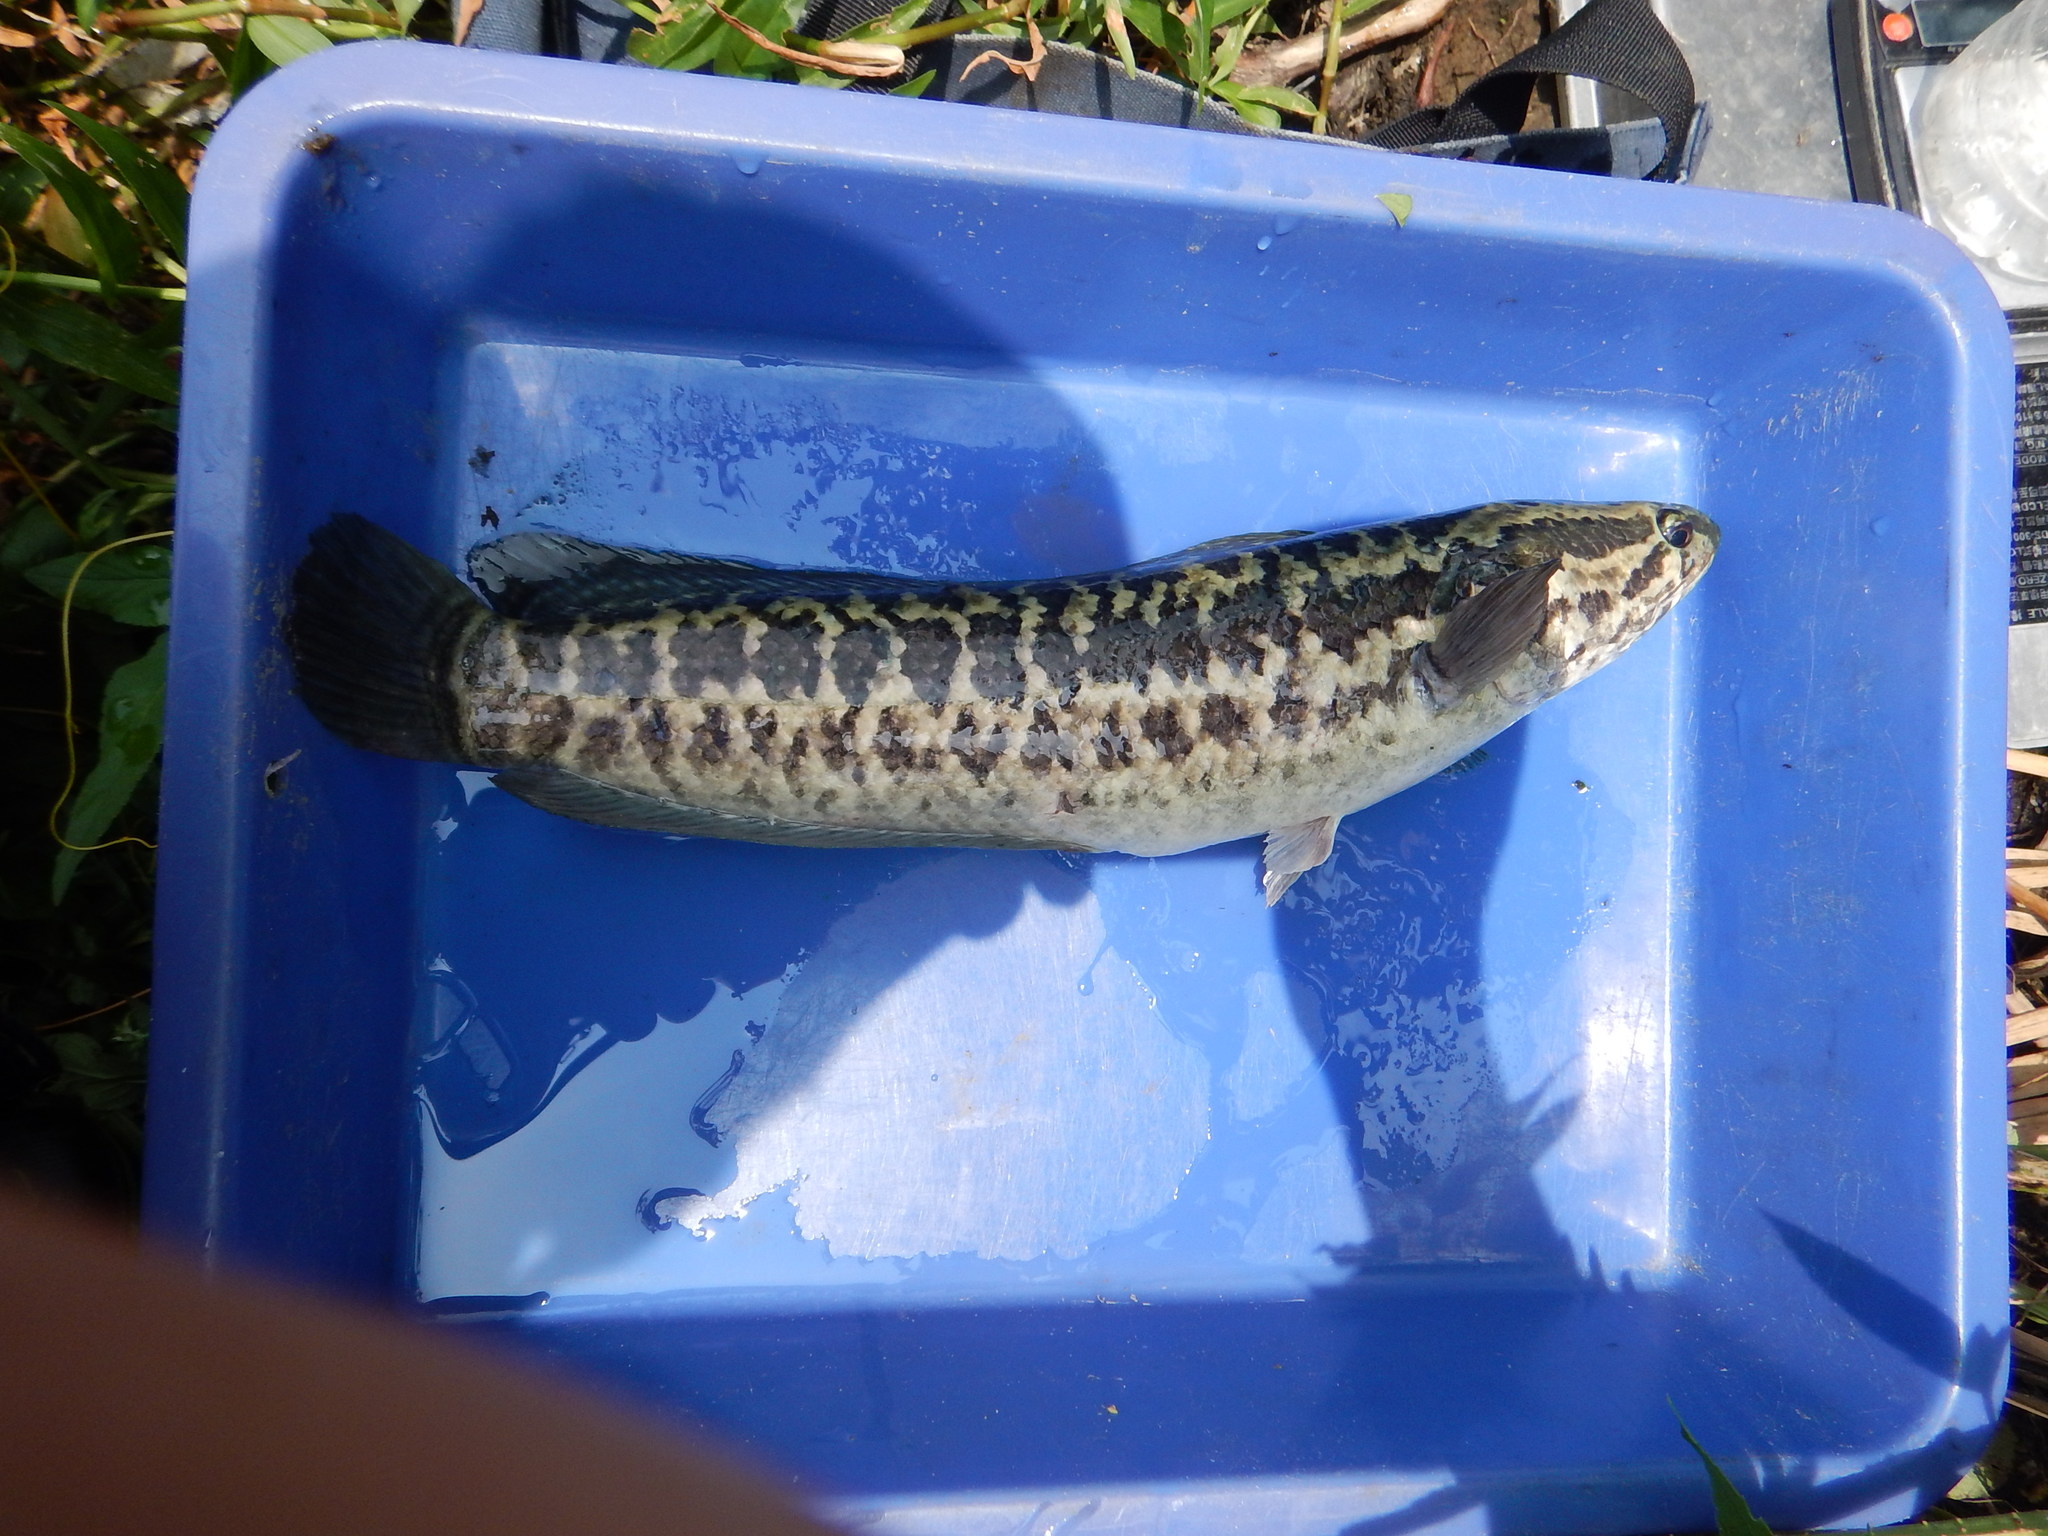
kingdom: Animalia
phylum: Chordata
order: Perciformes
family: Channidae
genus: Channa
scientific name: Channa maculata
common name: Blotched snakehead
